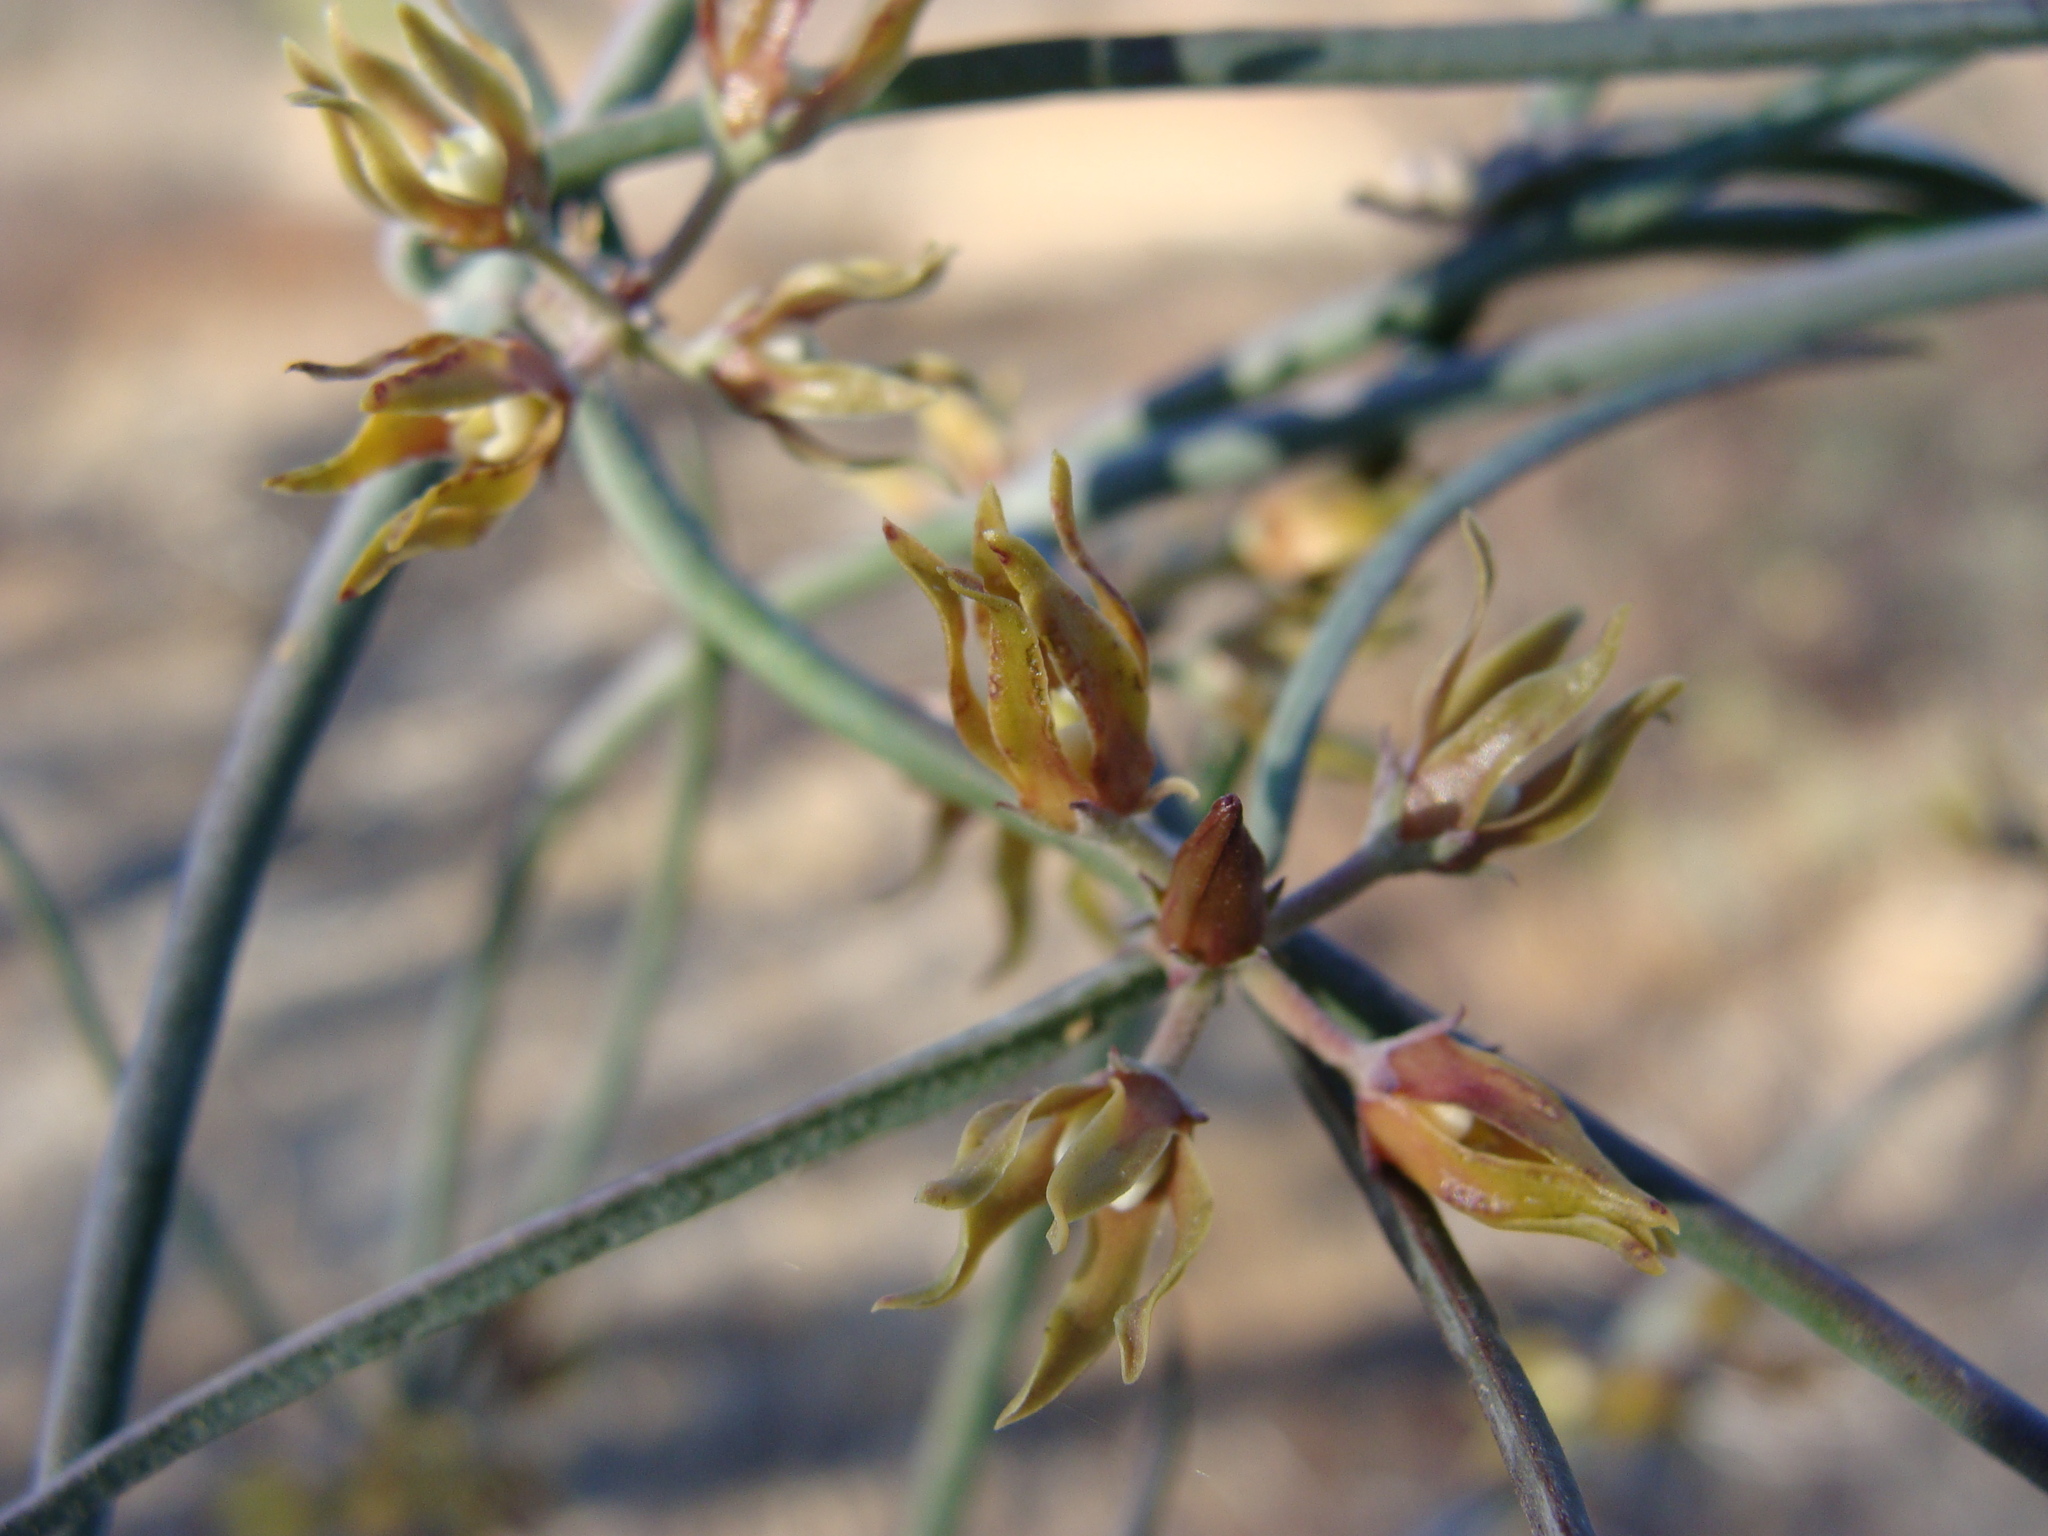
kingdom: Plantae
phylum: Tracheophyta
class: Magnoliopsida
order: Gentianales
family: Apocynaceae
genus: Pattalias
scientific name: Pattalias palmeri
